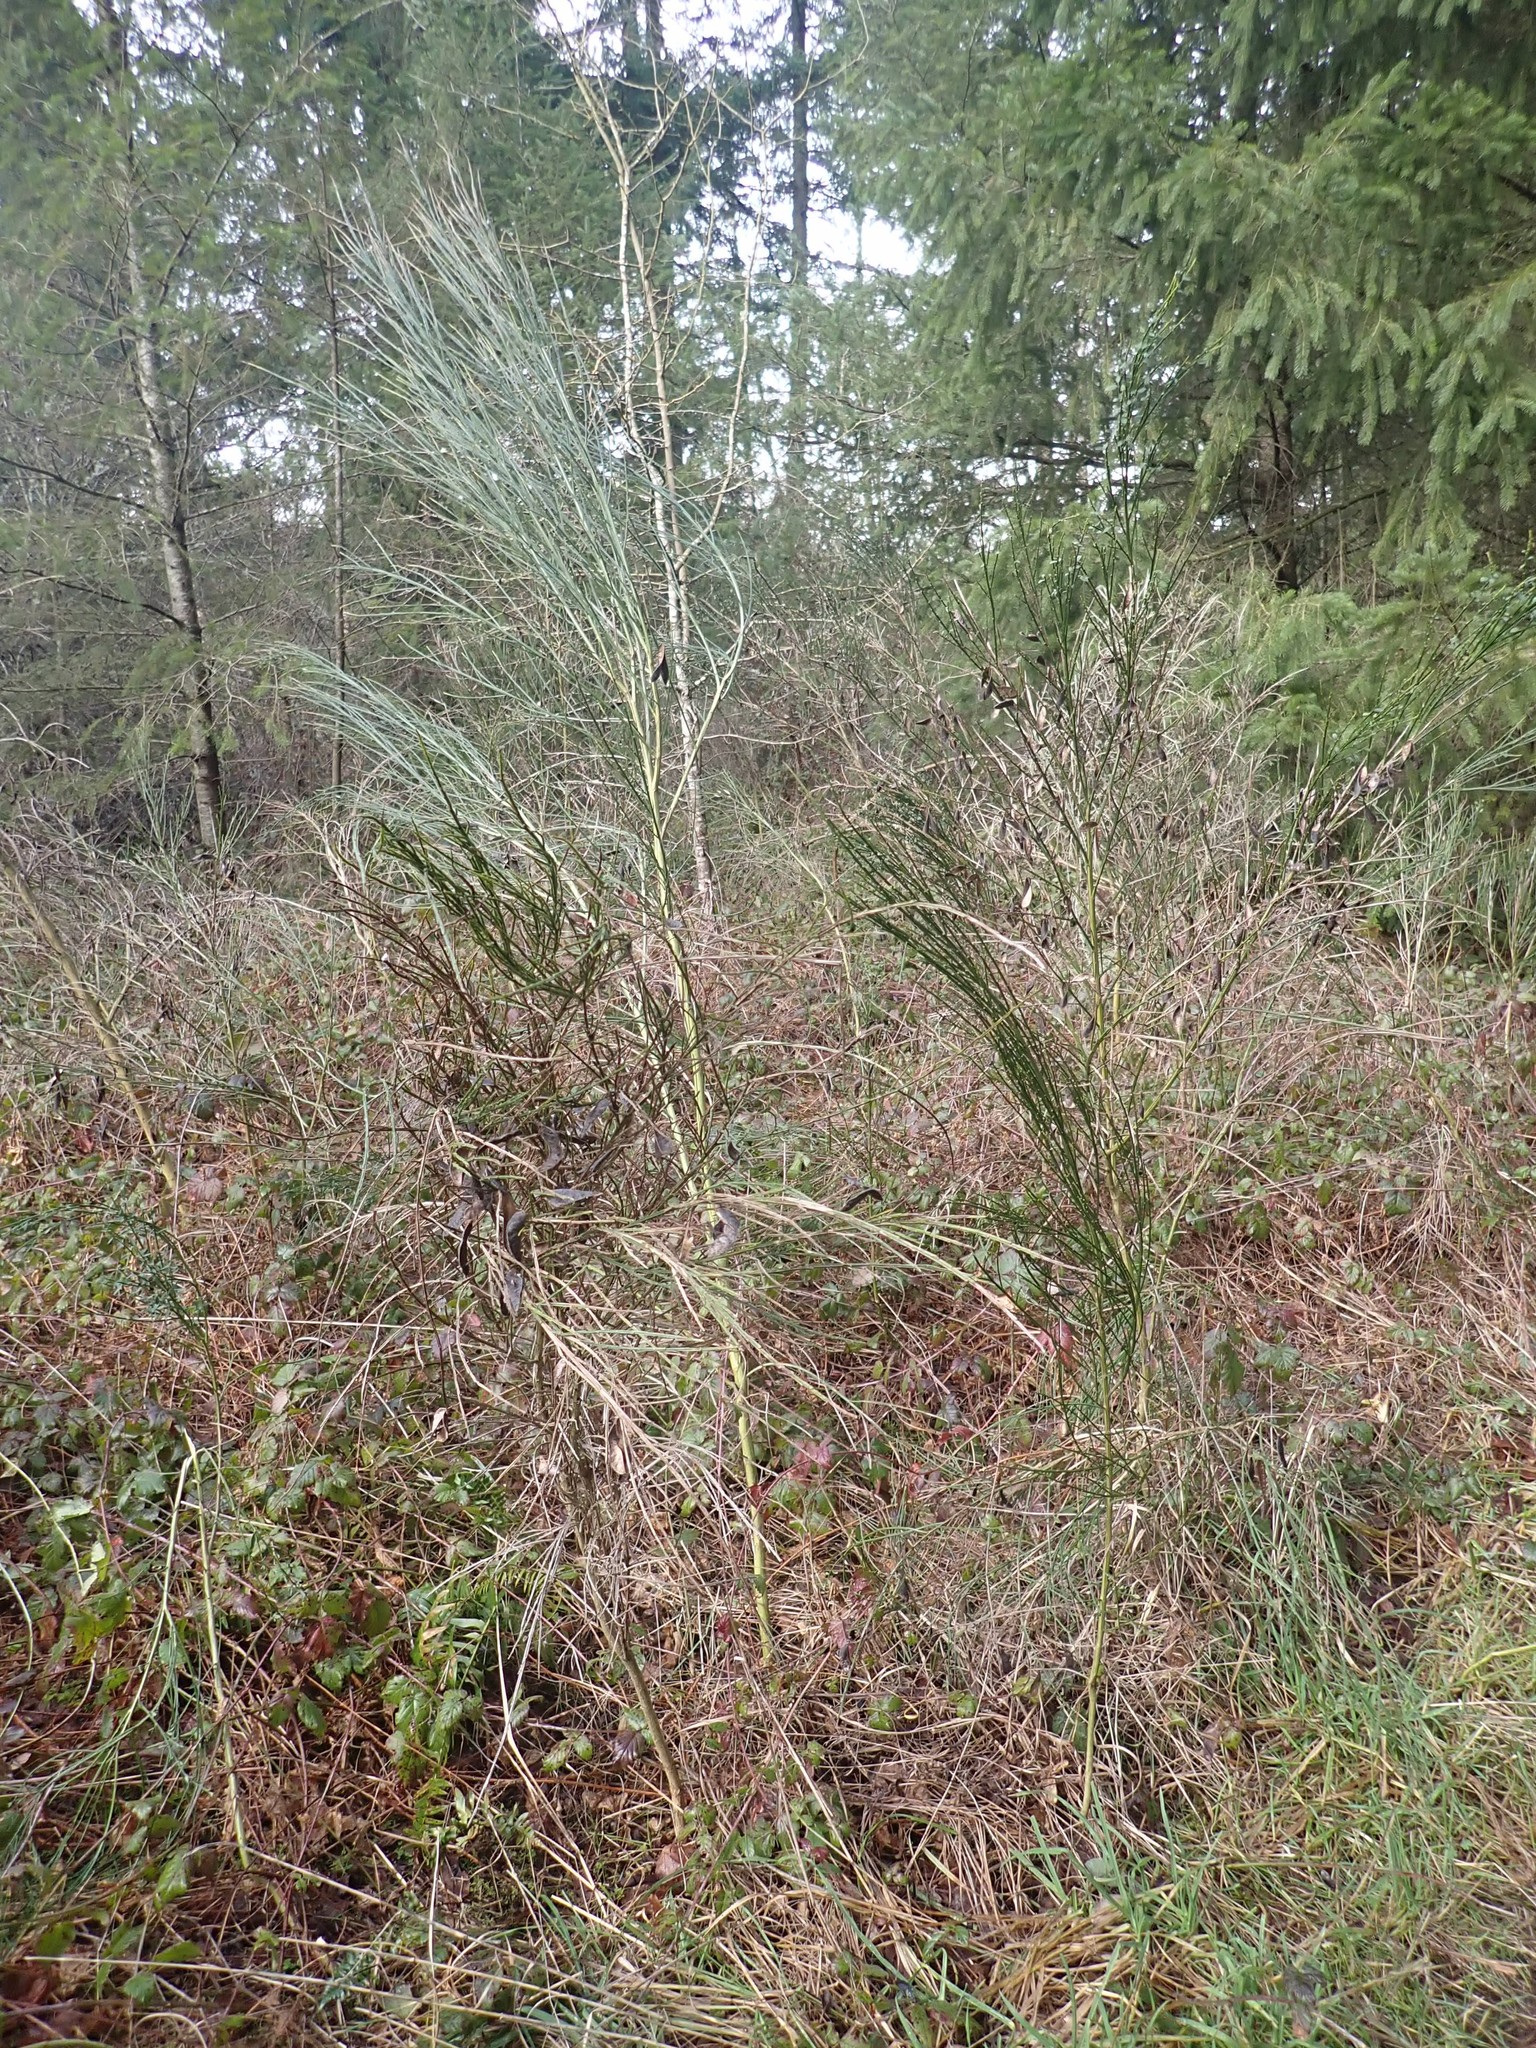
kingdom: Plantae
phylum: Tracheophyta
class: Magnoliopsida
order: Fabales
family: Fabaceae
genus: Cytisus
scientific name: Cytisus scoparius
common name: Scotch broom
